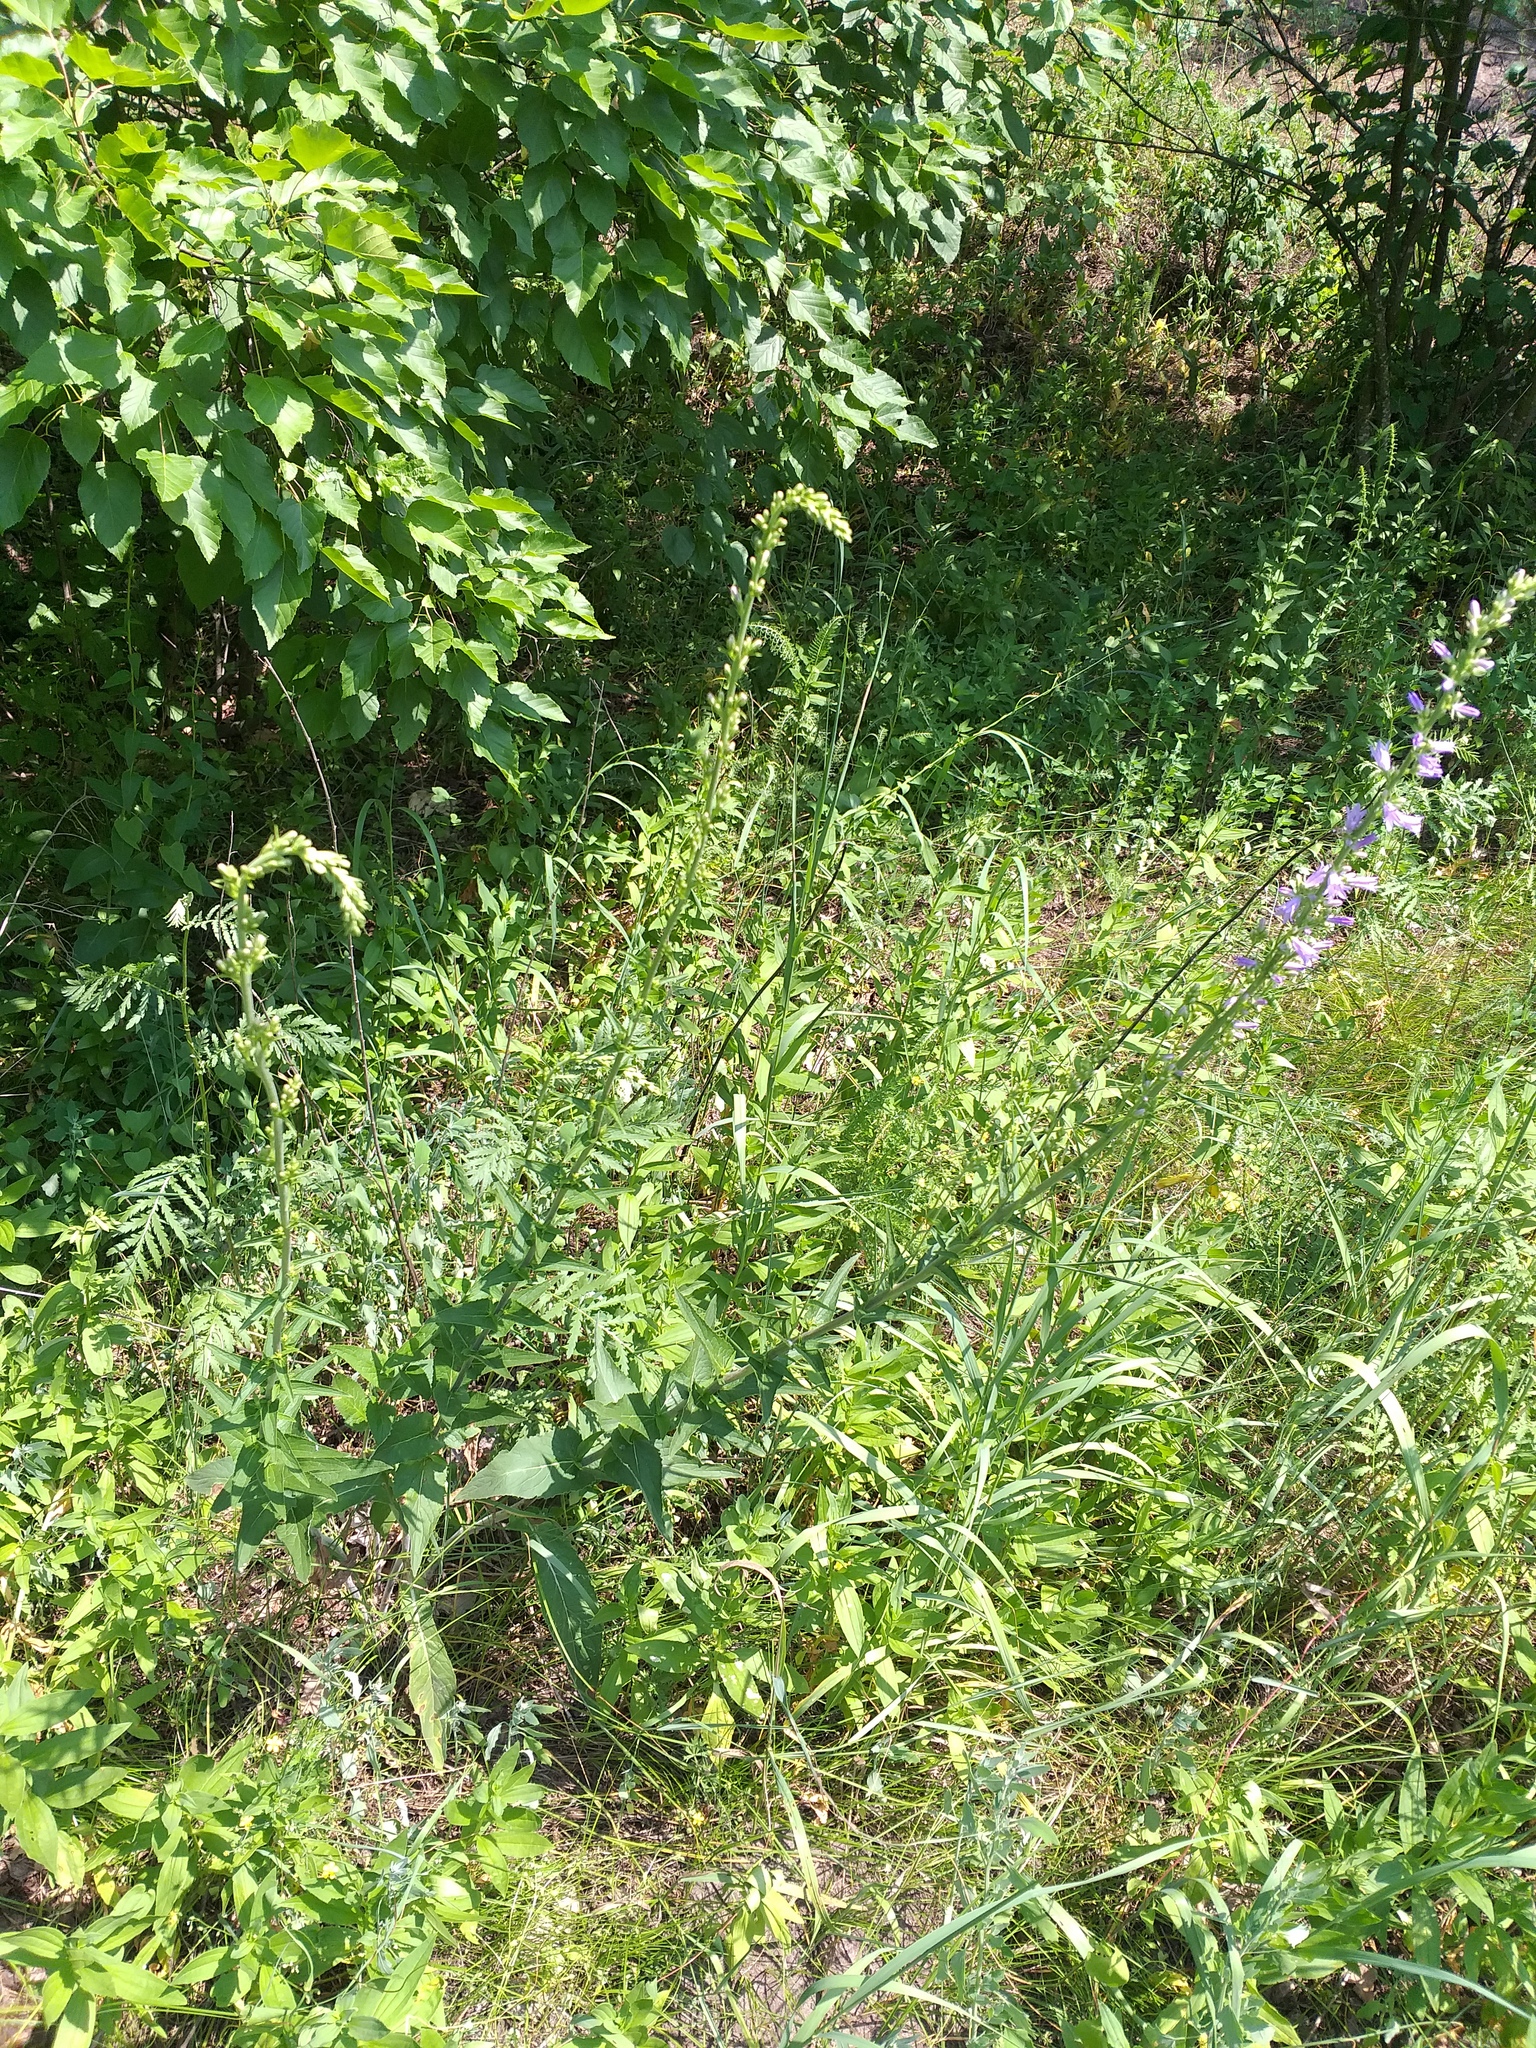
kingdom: Plantae
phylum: Tracheophyta
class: Magnoliopsida
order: Asterales
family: Campanulaceae
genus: Campanula
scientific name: Campanula bononiensis
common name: Pale bellflower
